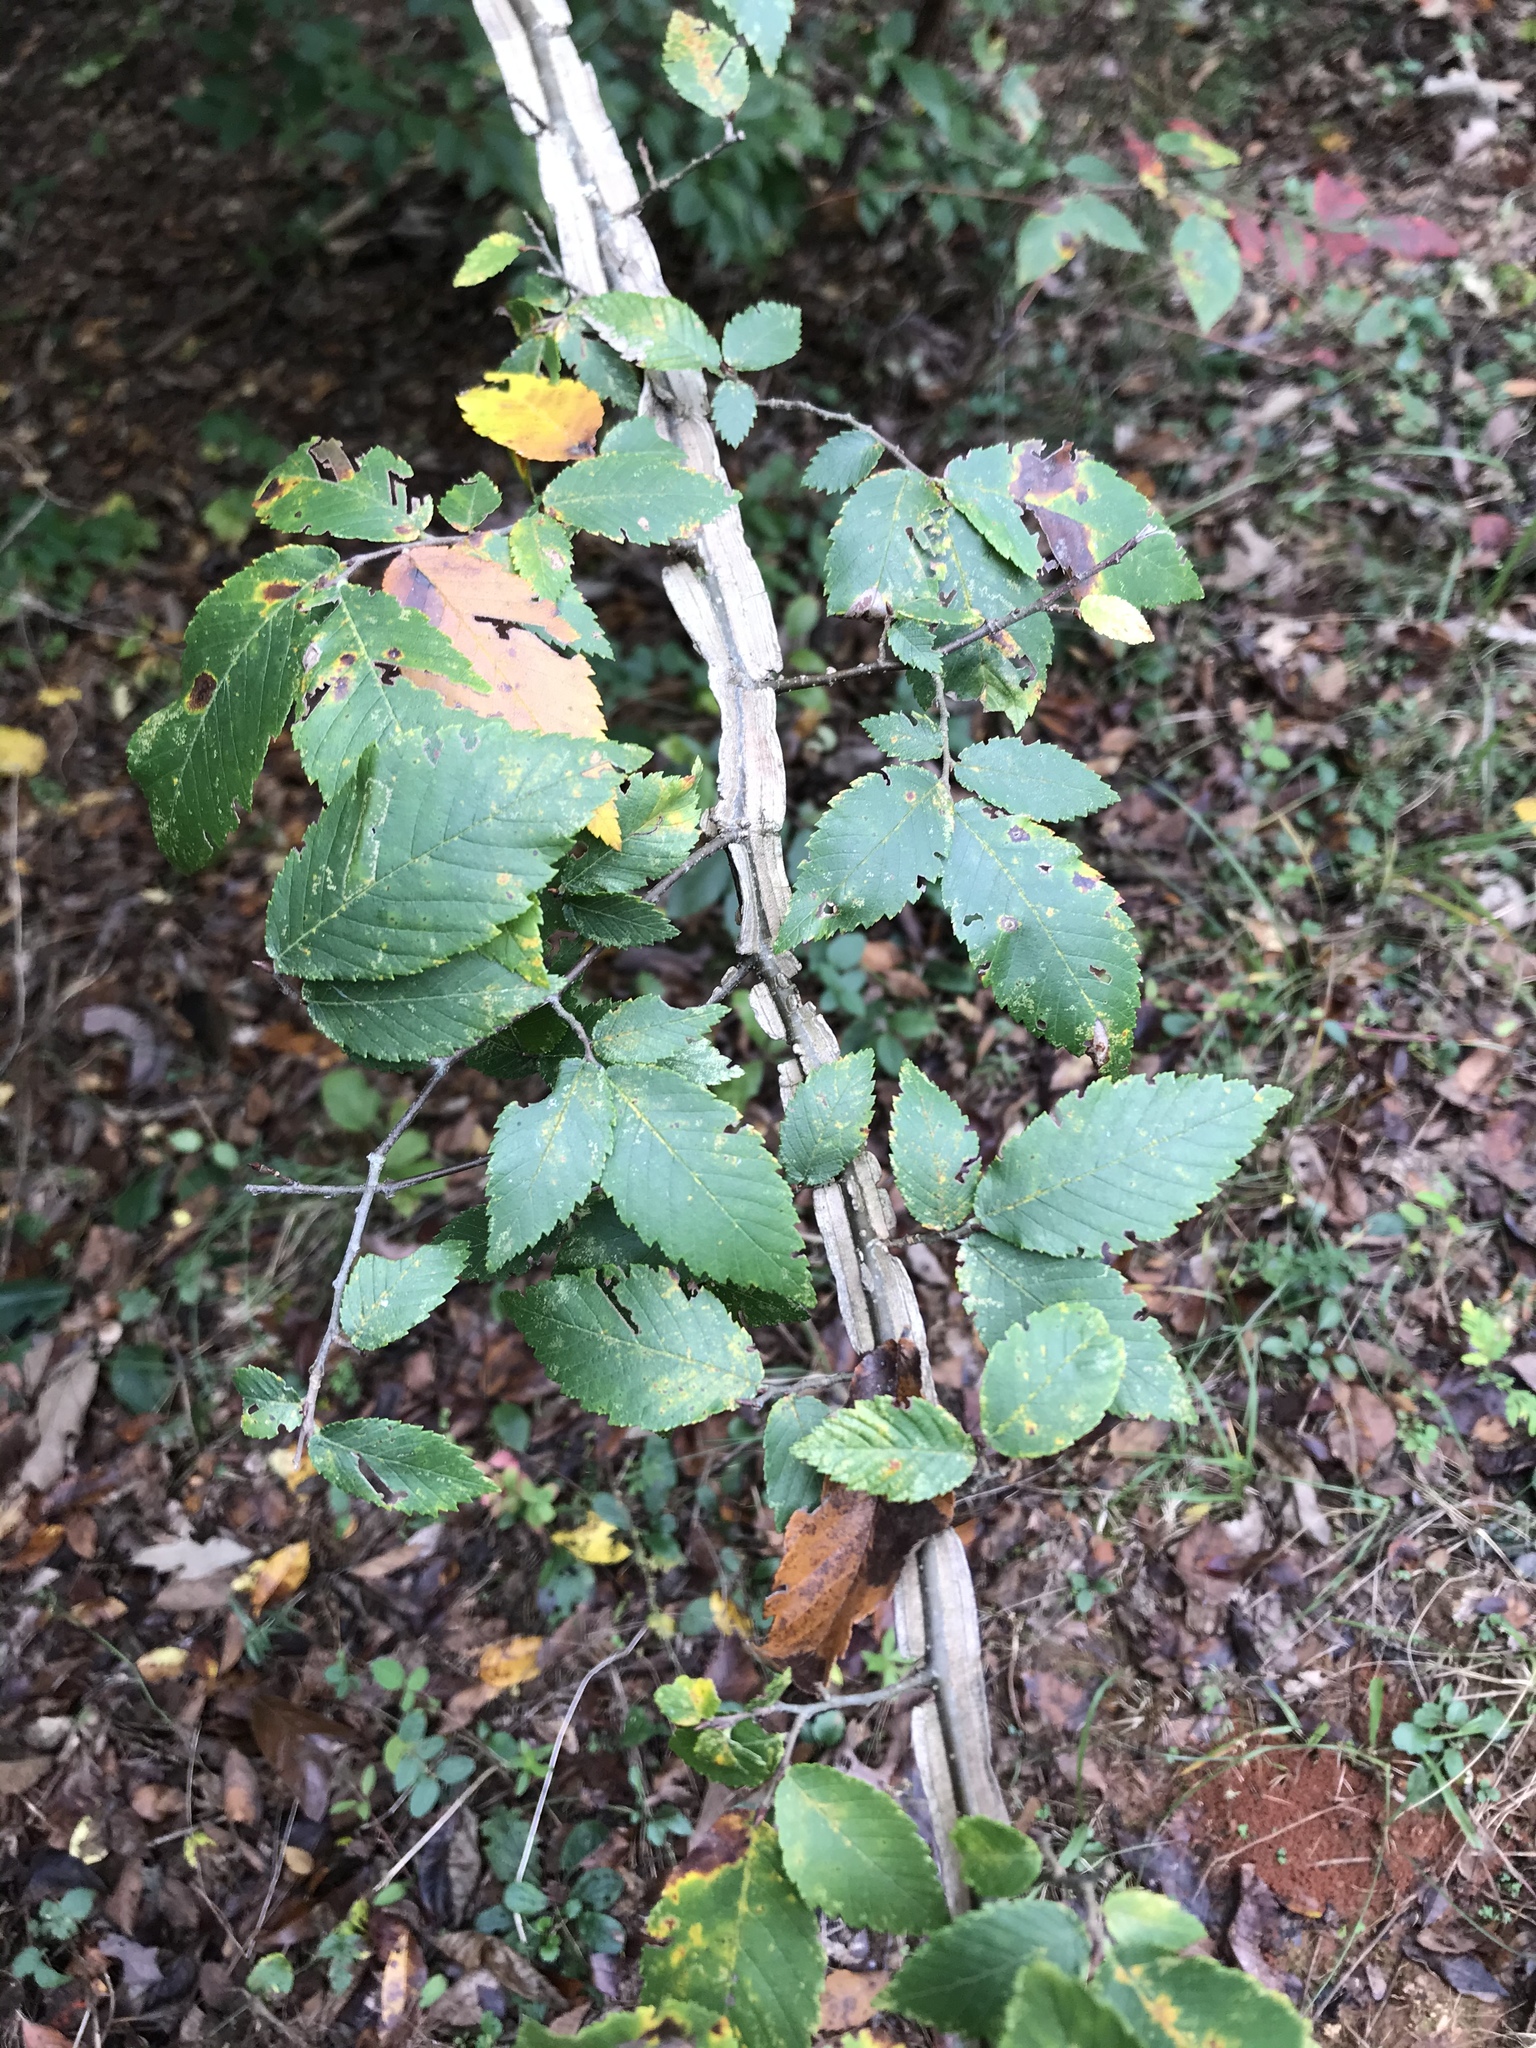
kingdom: Plantae
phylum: Tracheophyta
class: Magnoliopsida
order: Rosales
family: Ulmaceae
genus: Ulmus
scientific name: Ulmus alata
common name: Winged elm
